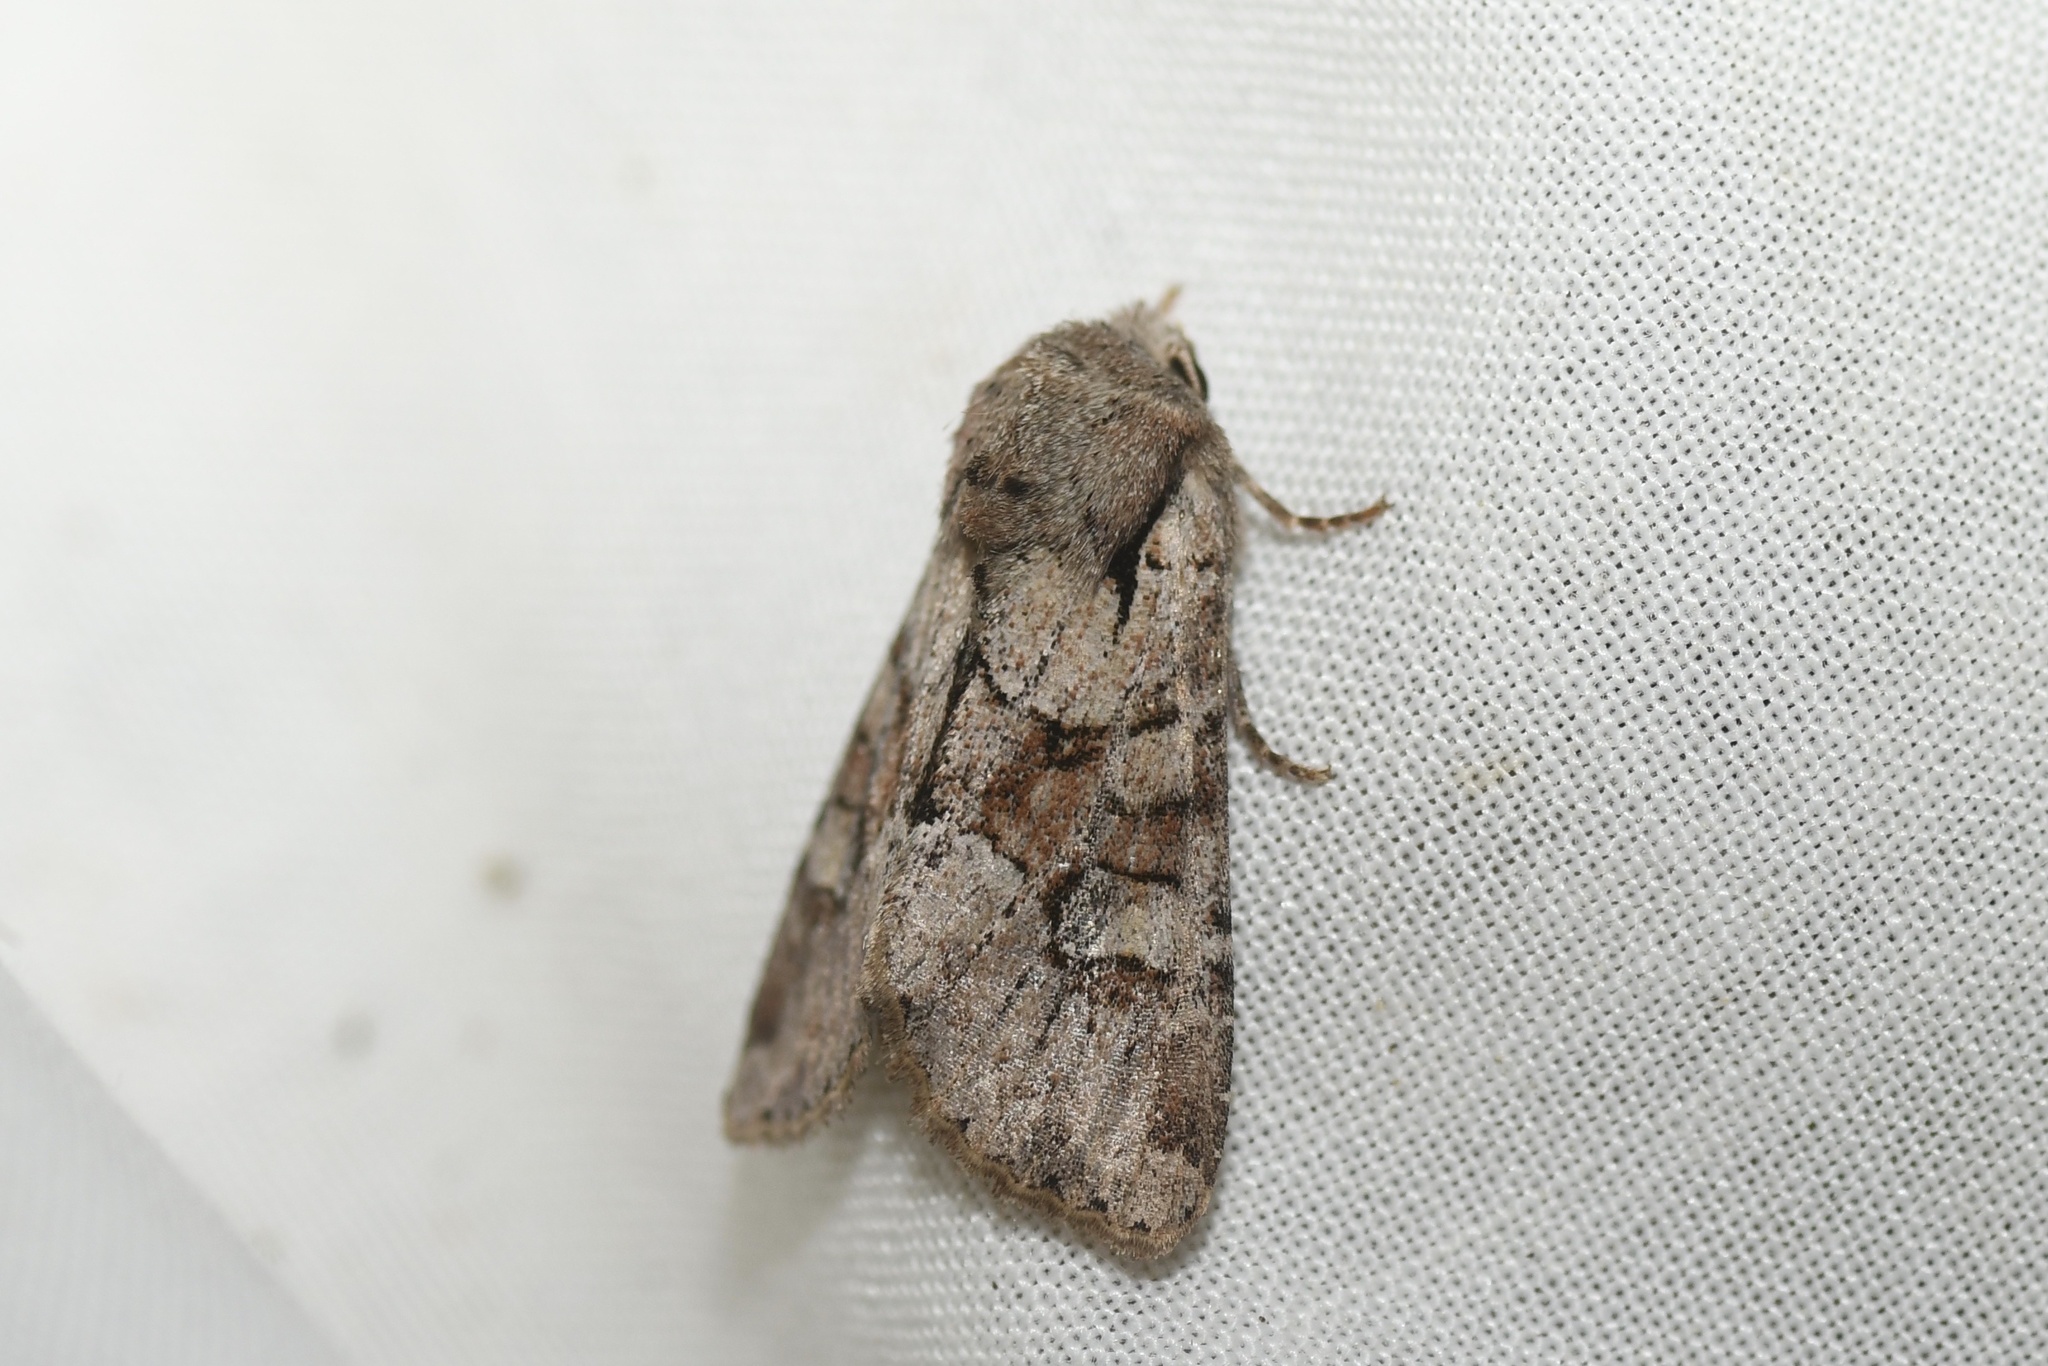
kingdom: Animalia
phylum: Arthropoda
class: Insecta
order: Lepidoptera
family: Noctuidae
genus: Apamea
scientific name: Apamea sordens
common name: Rustic shoulder-knot
